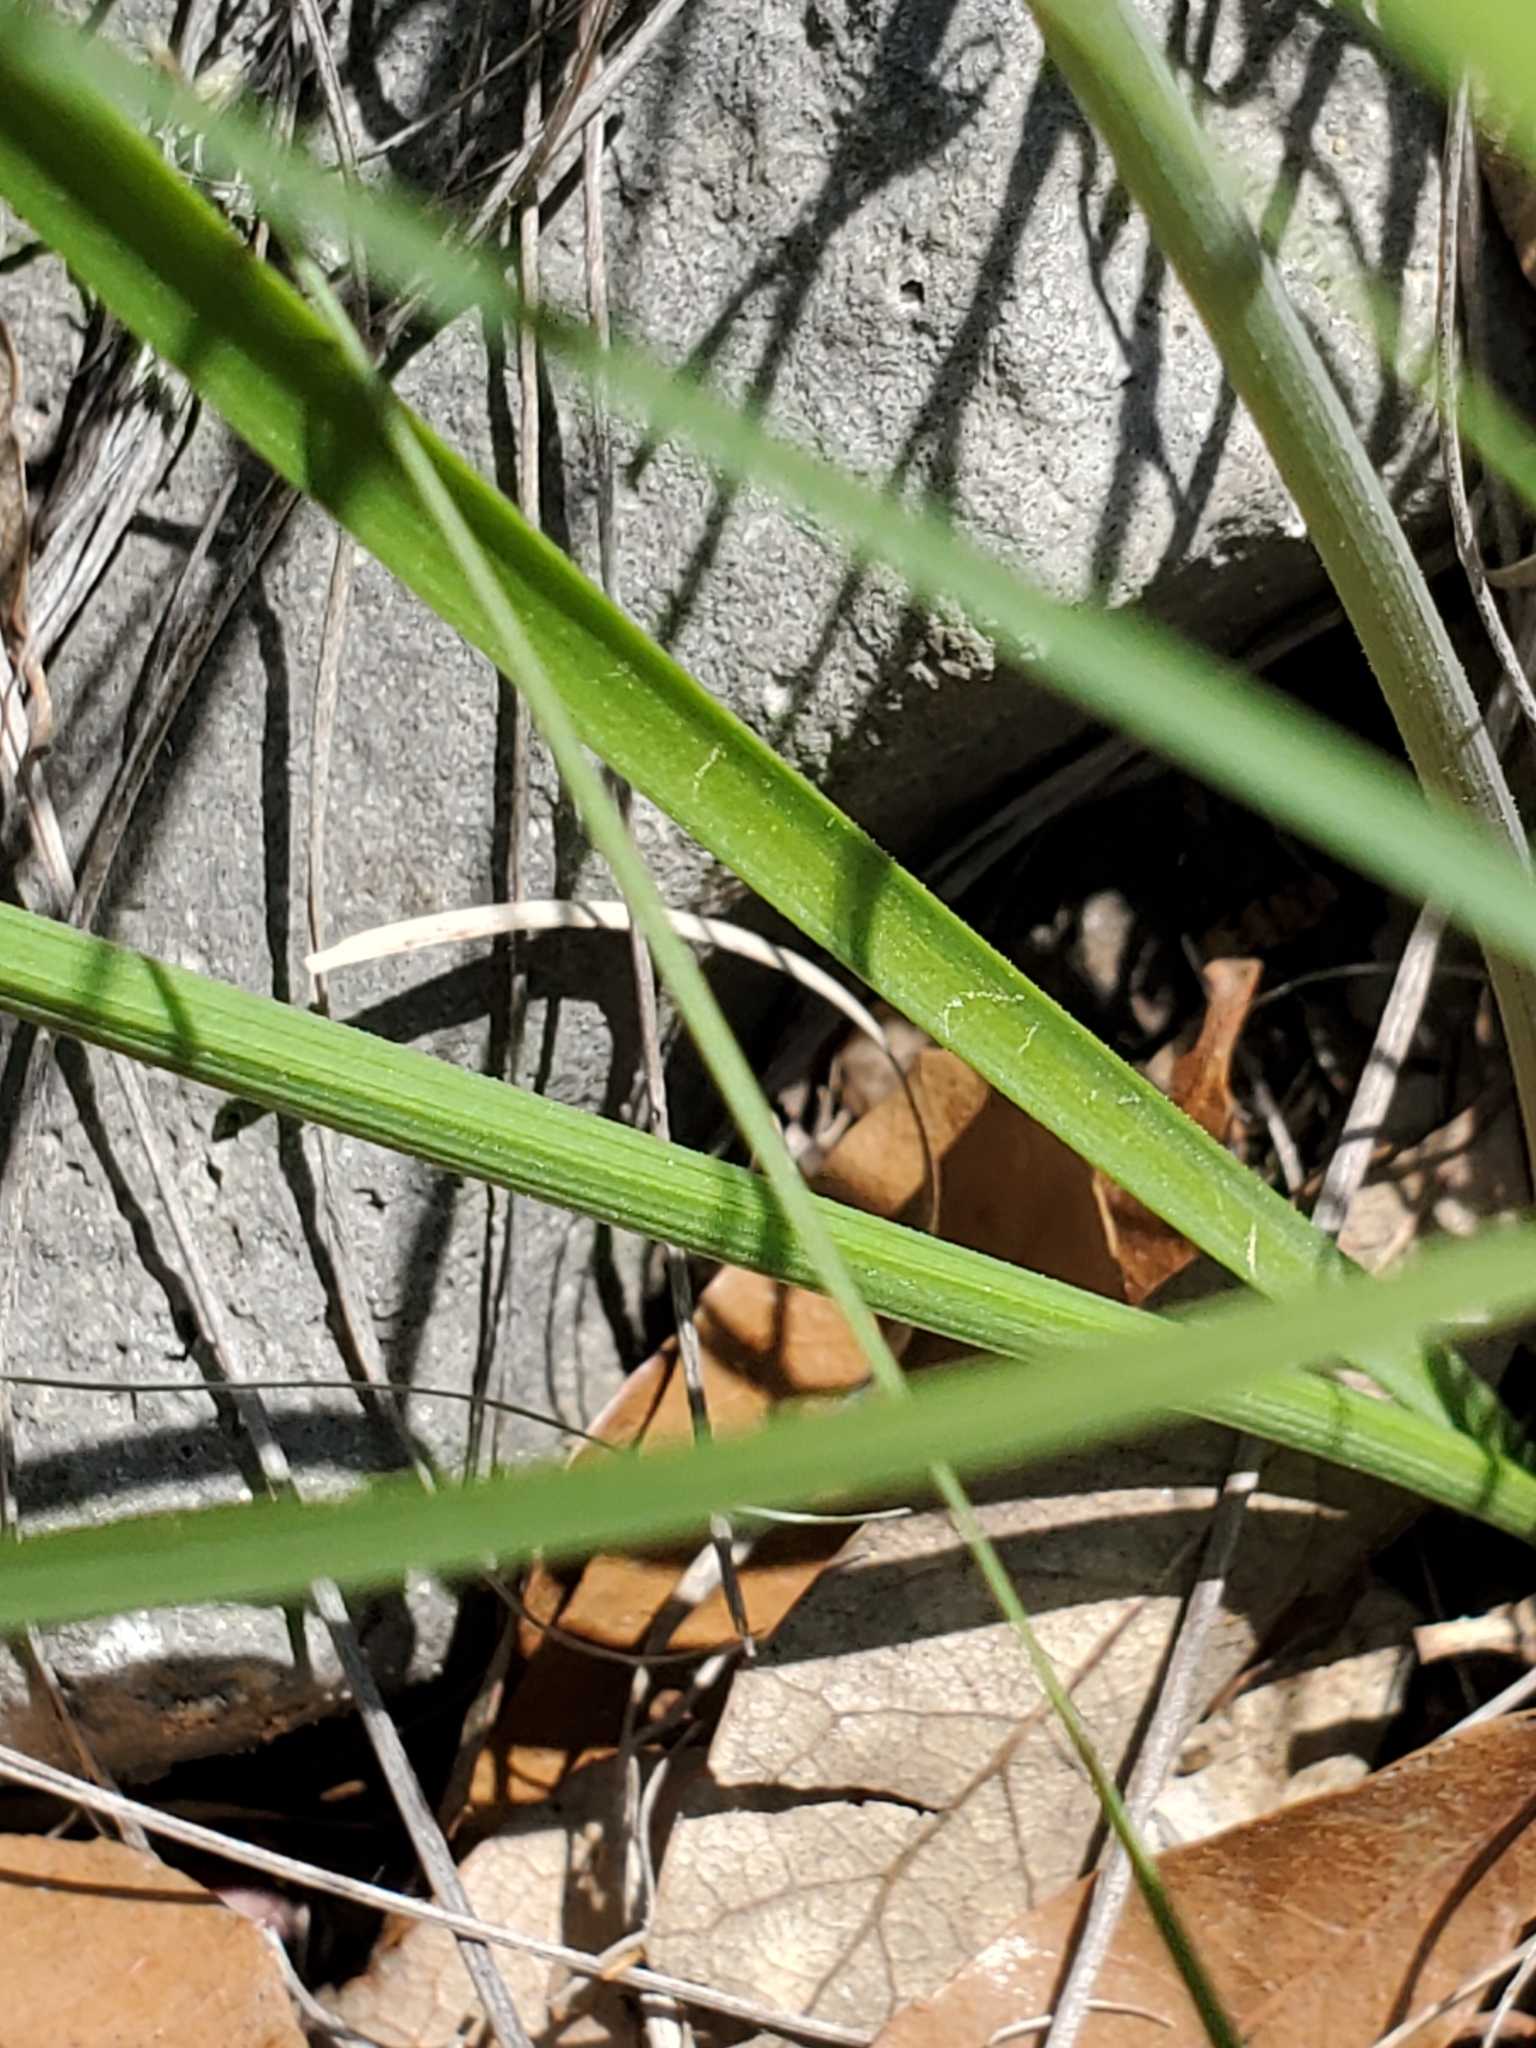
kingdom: Plantae
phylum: Tracheophyta
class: Liliopsida
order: Asparagales
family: Amaryllidaceae
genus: Nothoscordum
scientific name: Nothoscordum bivalve
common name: Crow-poison
